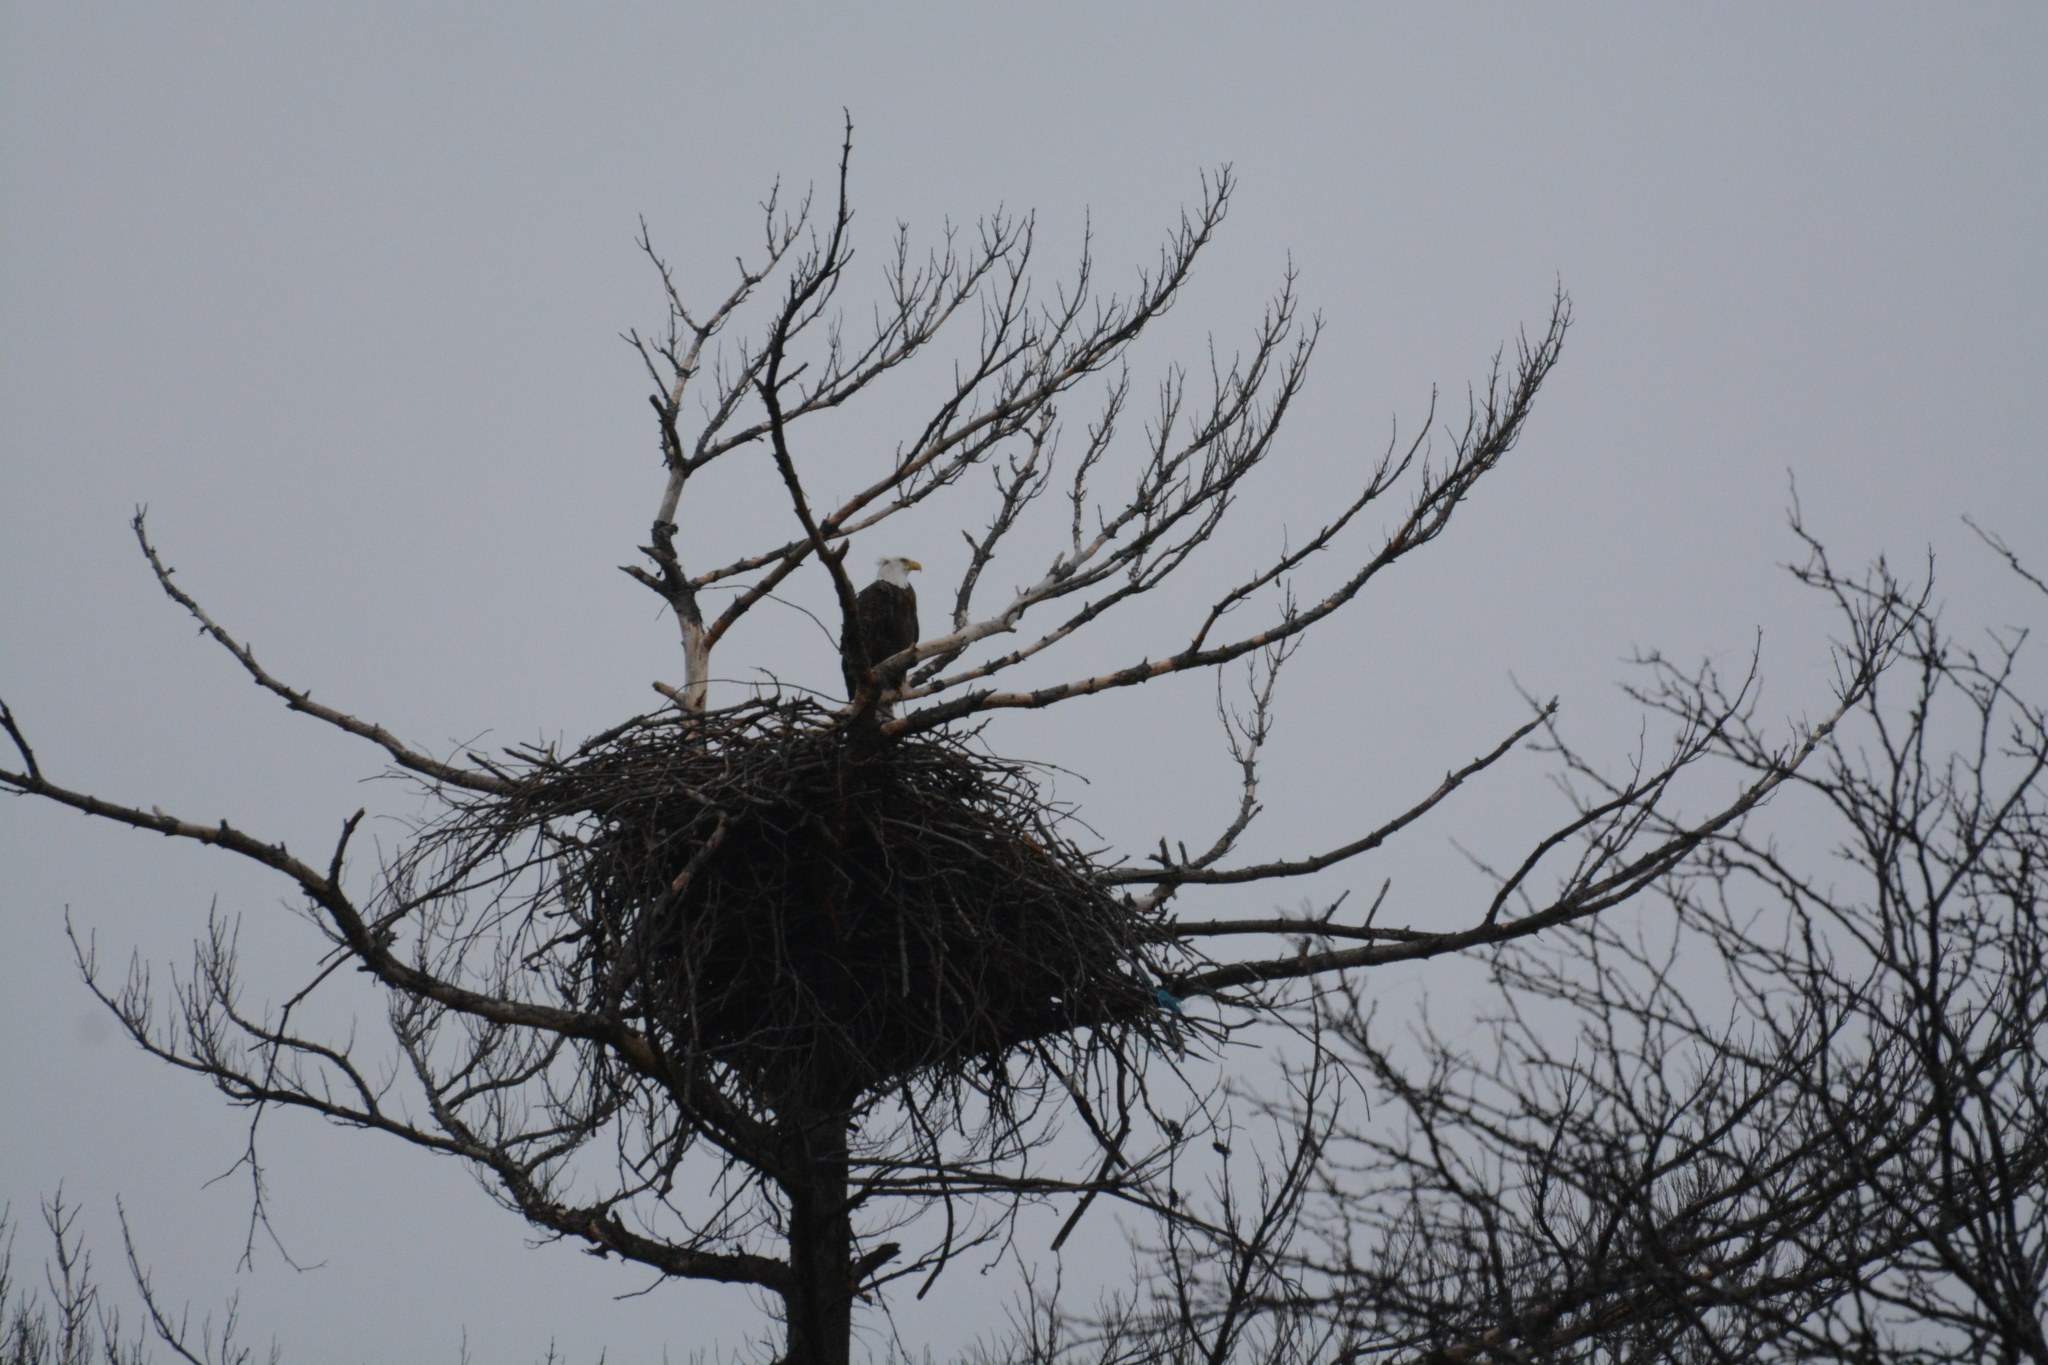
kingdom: Animalia
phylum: Chordata
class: Aves
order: Accipitriformes
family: Accipitridae
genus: Haliaeetus
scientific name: Haliaeetus leucocephalus
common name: Bald eagle
